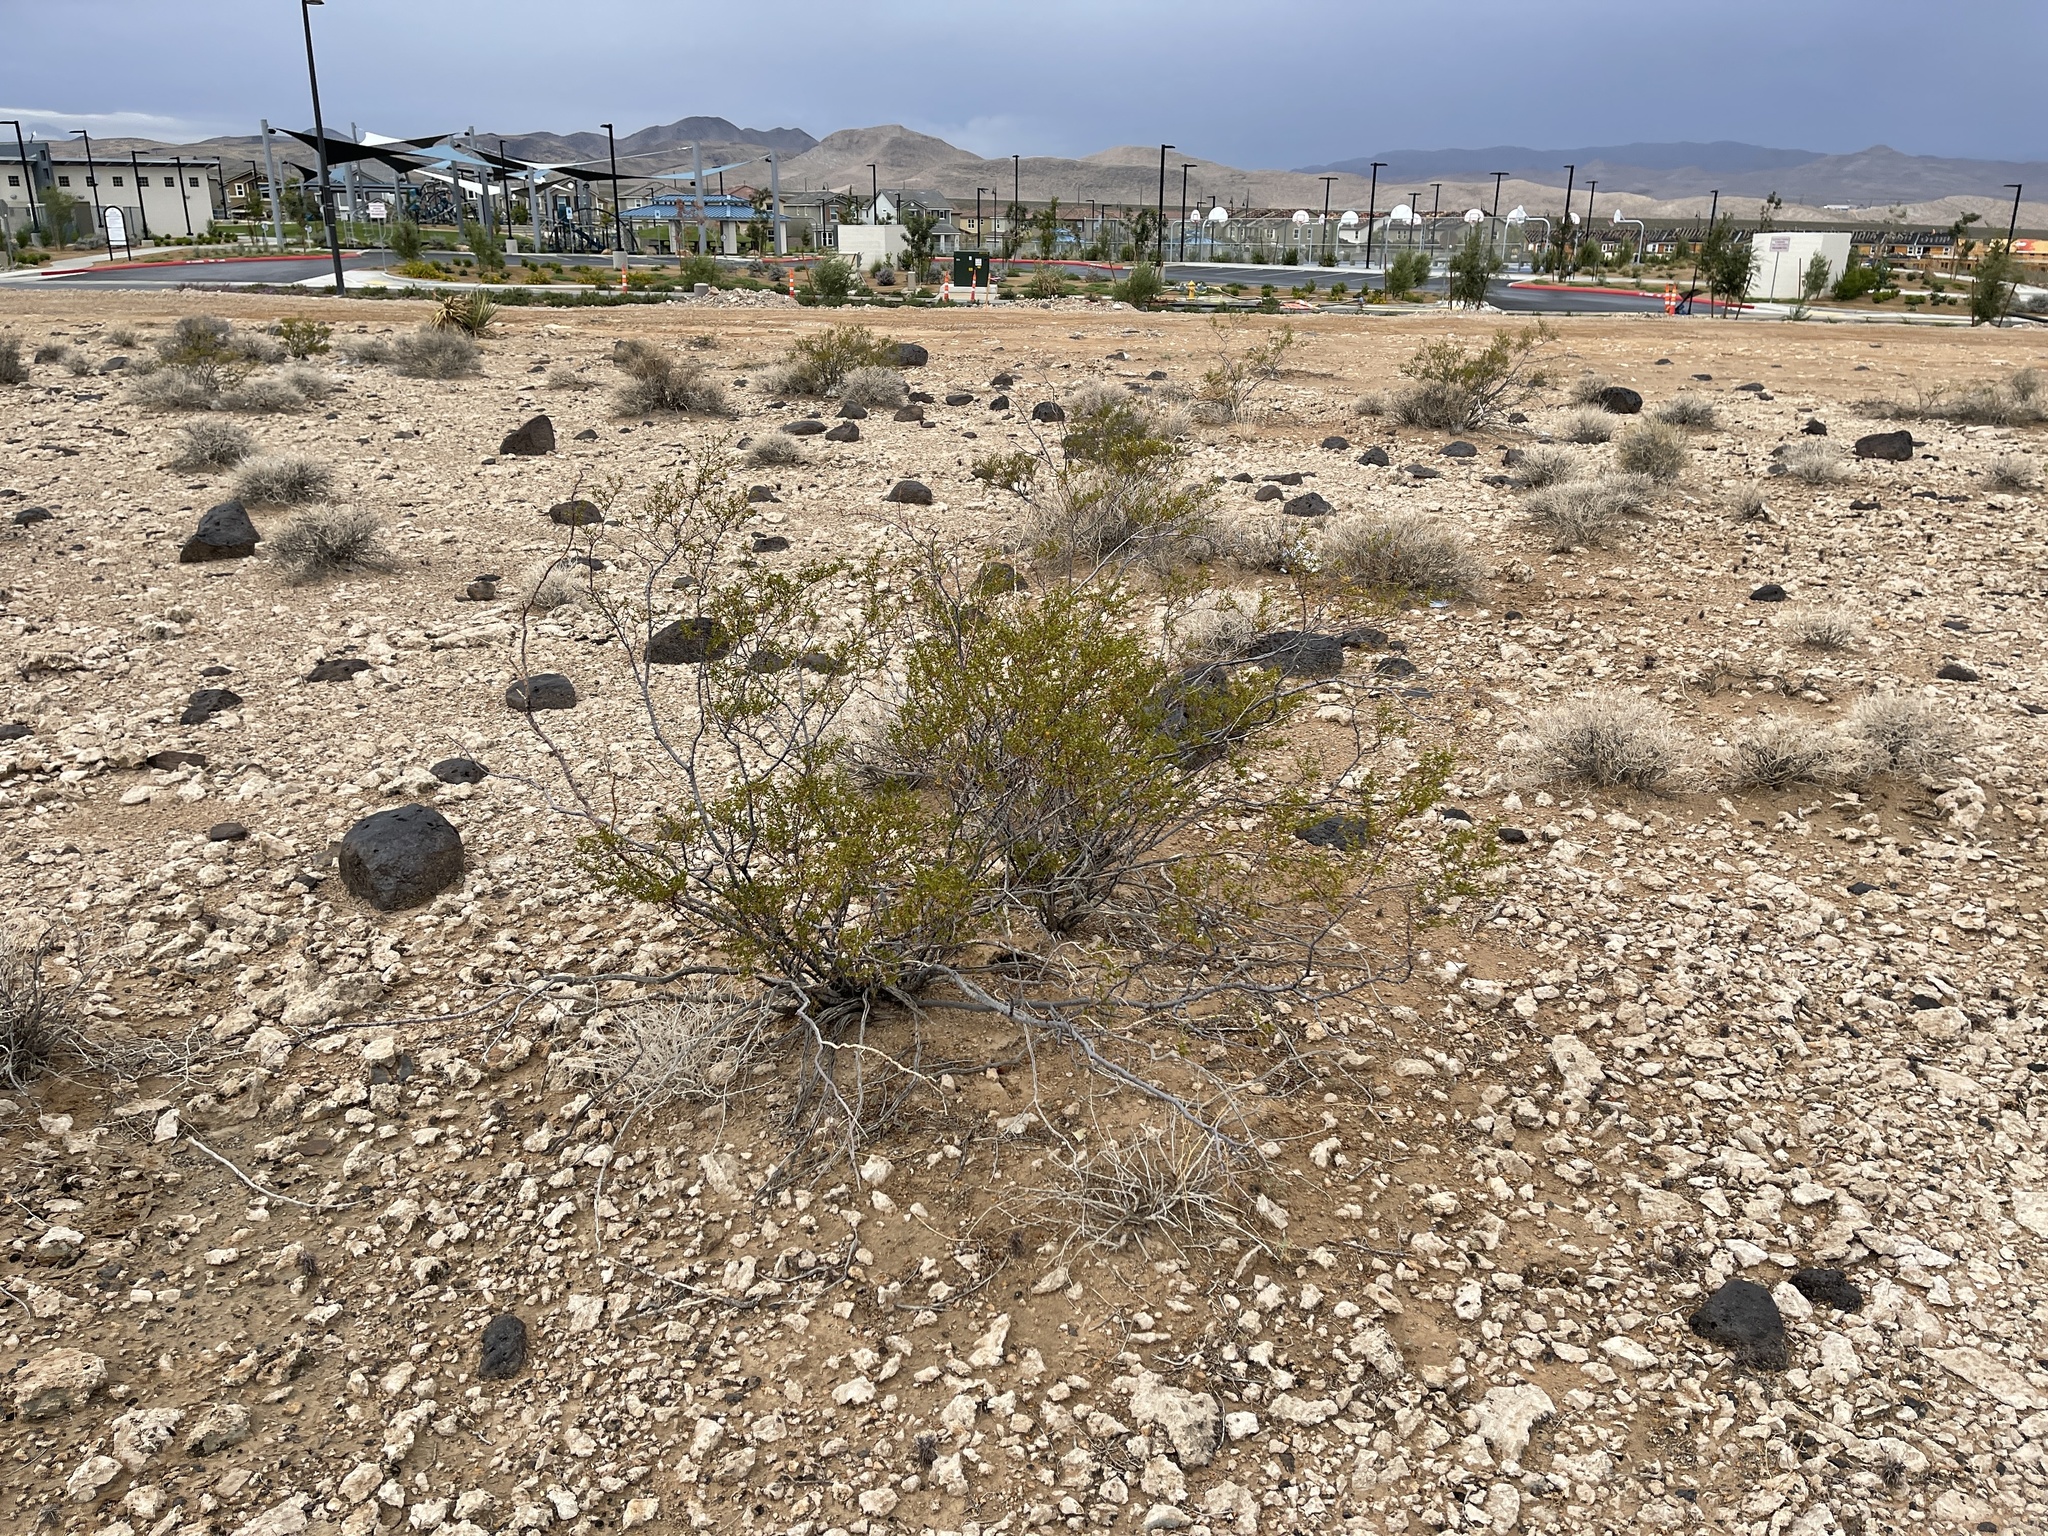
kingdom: Plantae
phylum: Tracheophyta
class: Magnoliopsida
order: Zygophyllales
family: Zygophyllaceae
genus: Larrea
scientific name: Larrea tridentata
